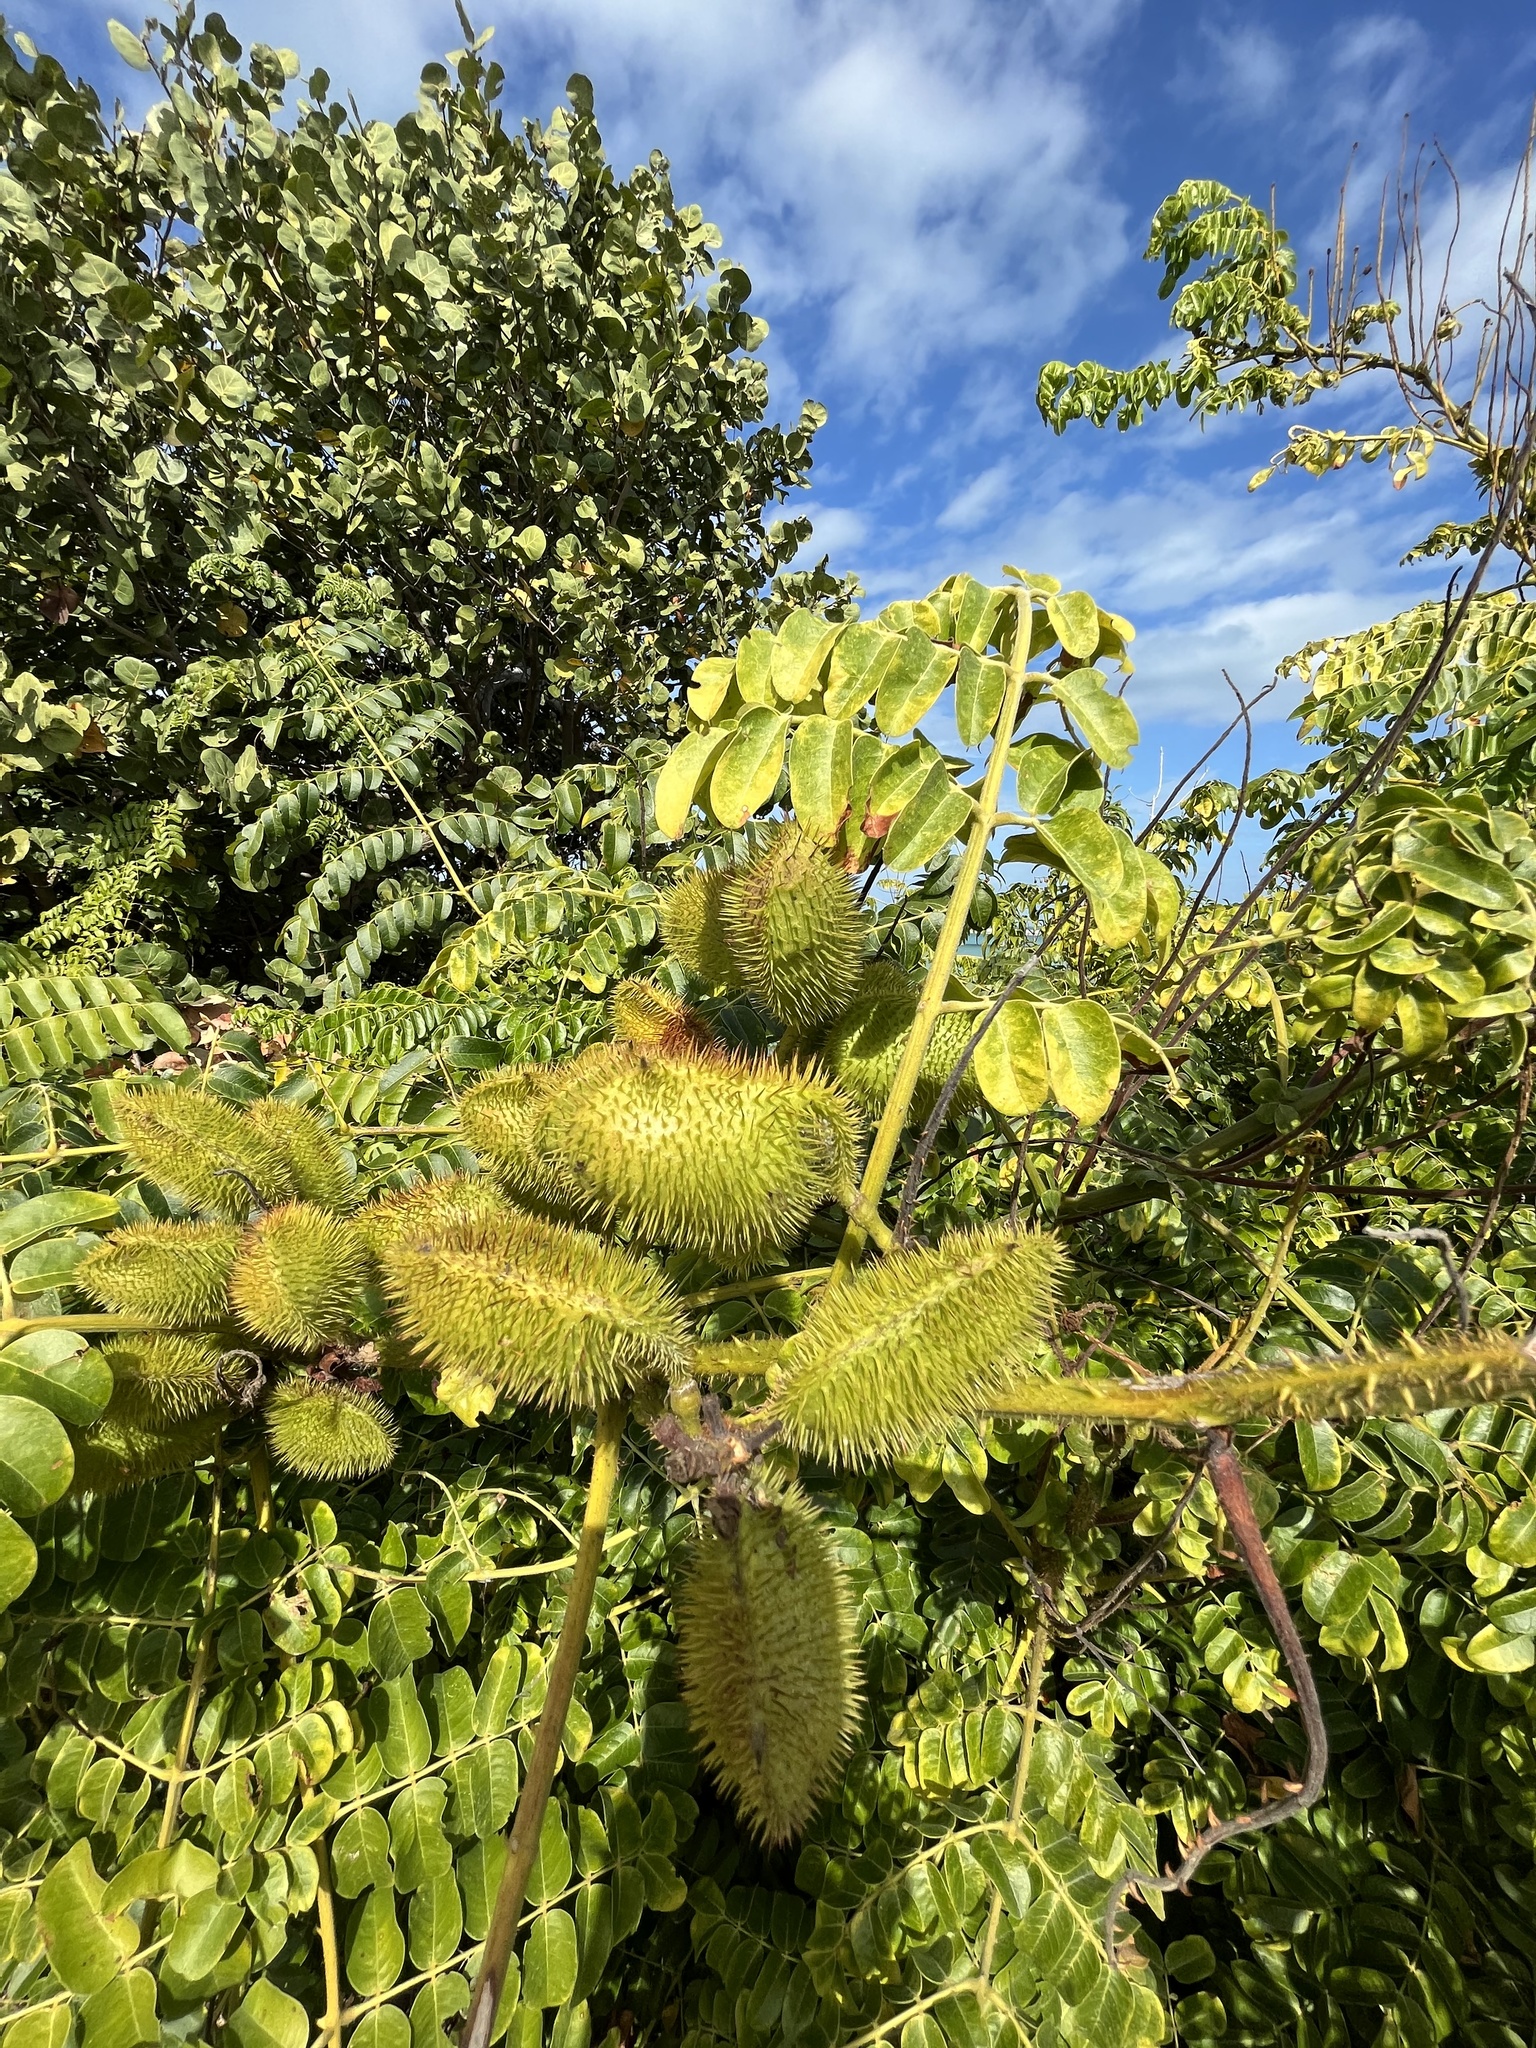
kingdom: Plantae
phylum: Tracheophyta
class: Magnoliopsida
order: Fabales
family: Fabaceae
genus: Guilandina
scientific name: Guilandina bonduc
